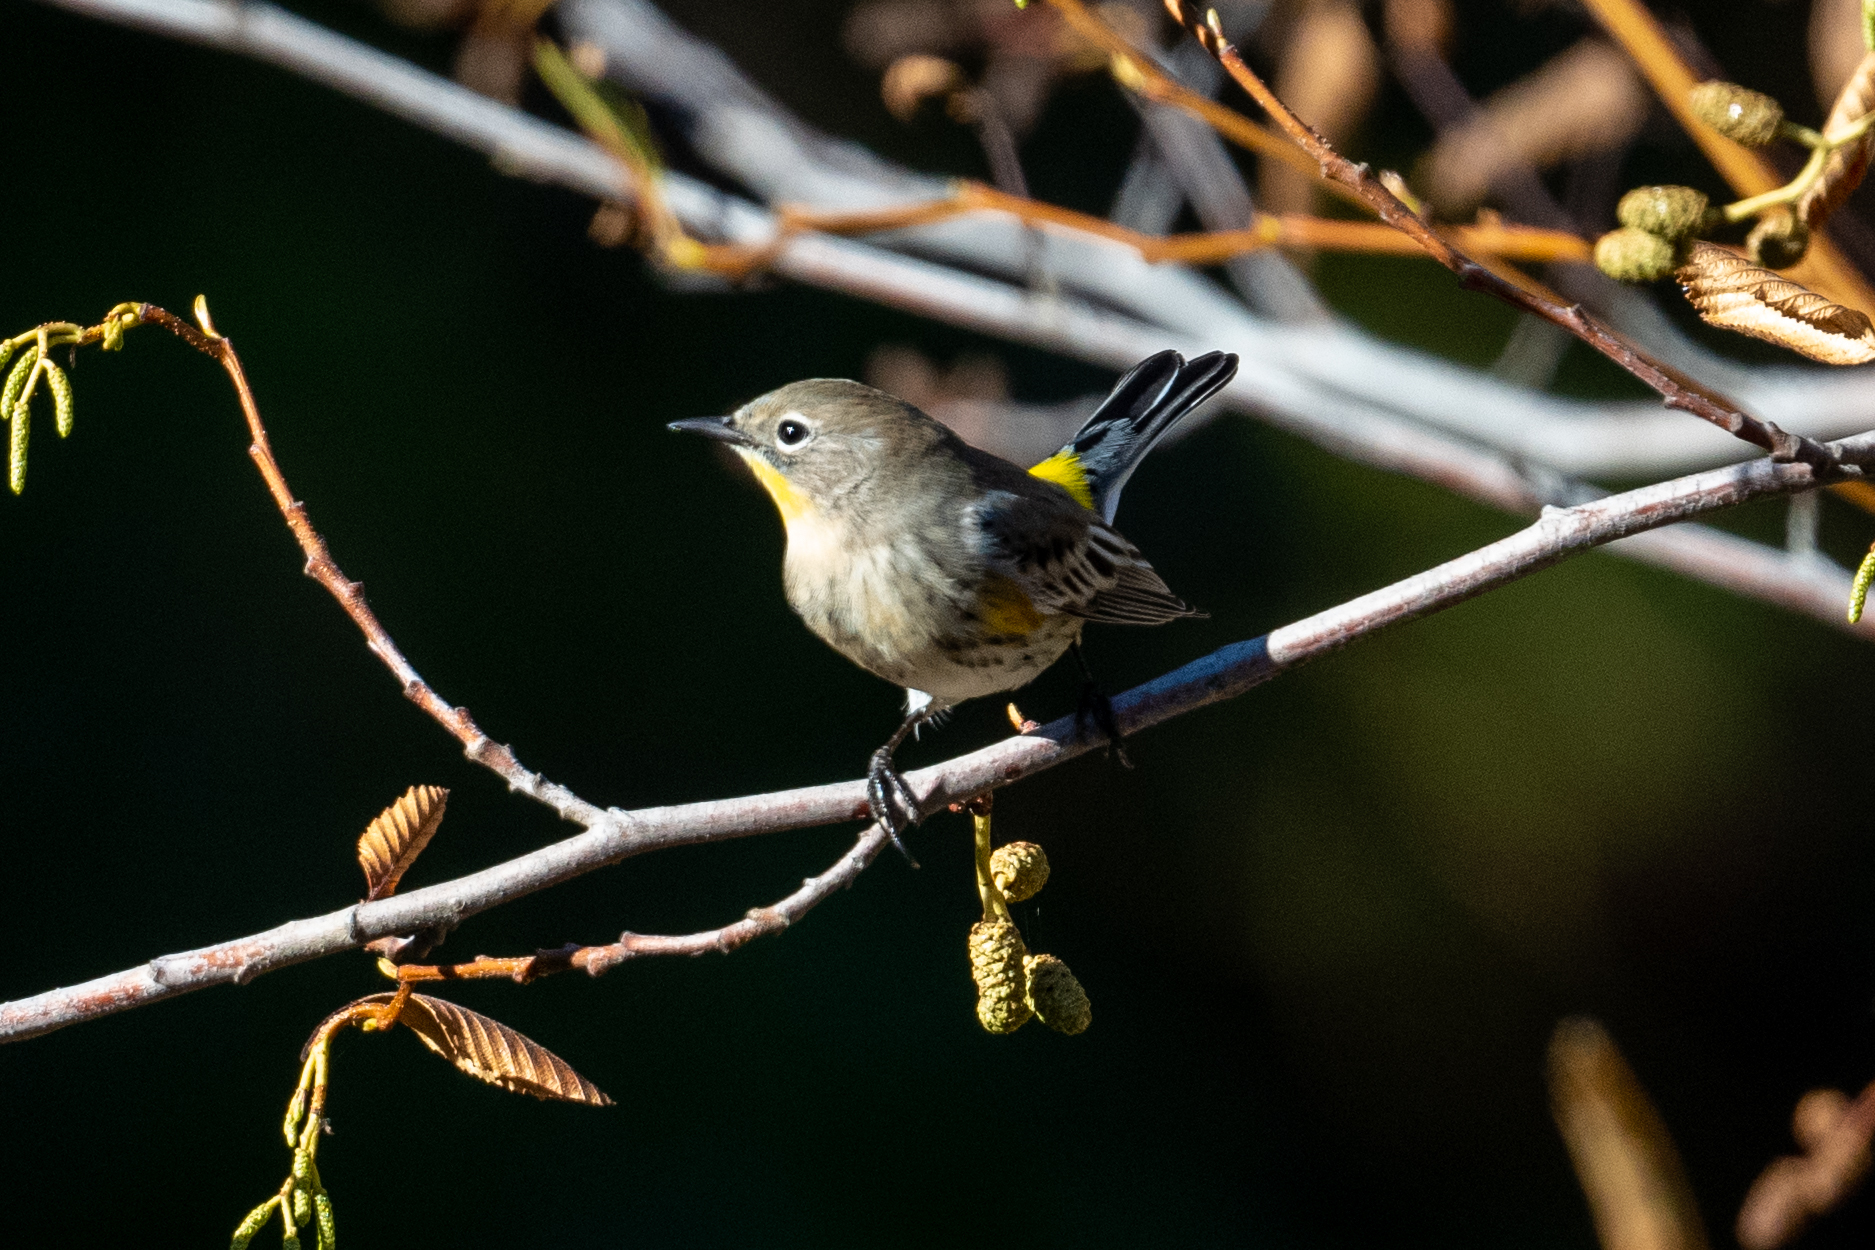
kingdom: Animalia
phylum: Chordata
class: Aves
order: Passeriformes
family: Parulidae
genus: Setophaga
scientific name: Setophaga coronata
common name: Myrtle warbler
